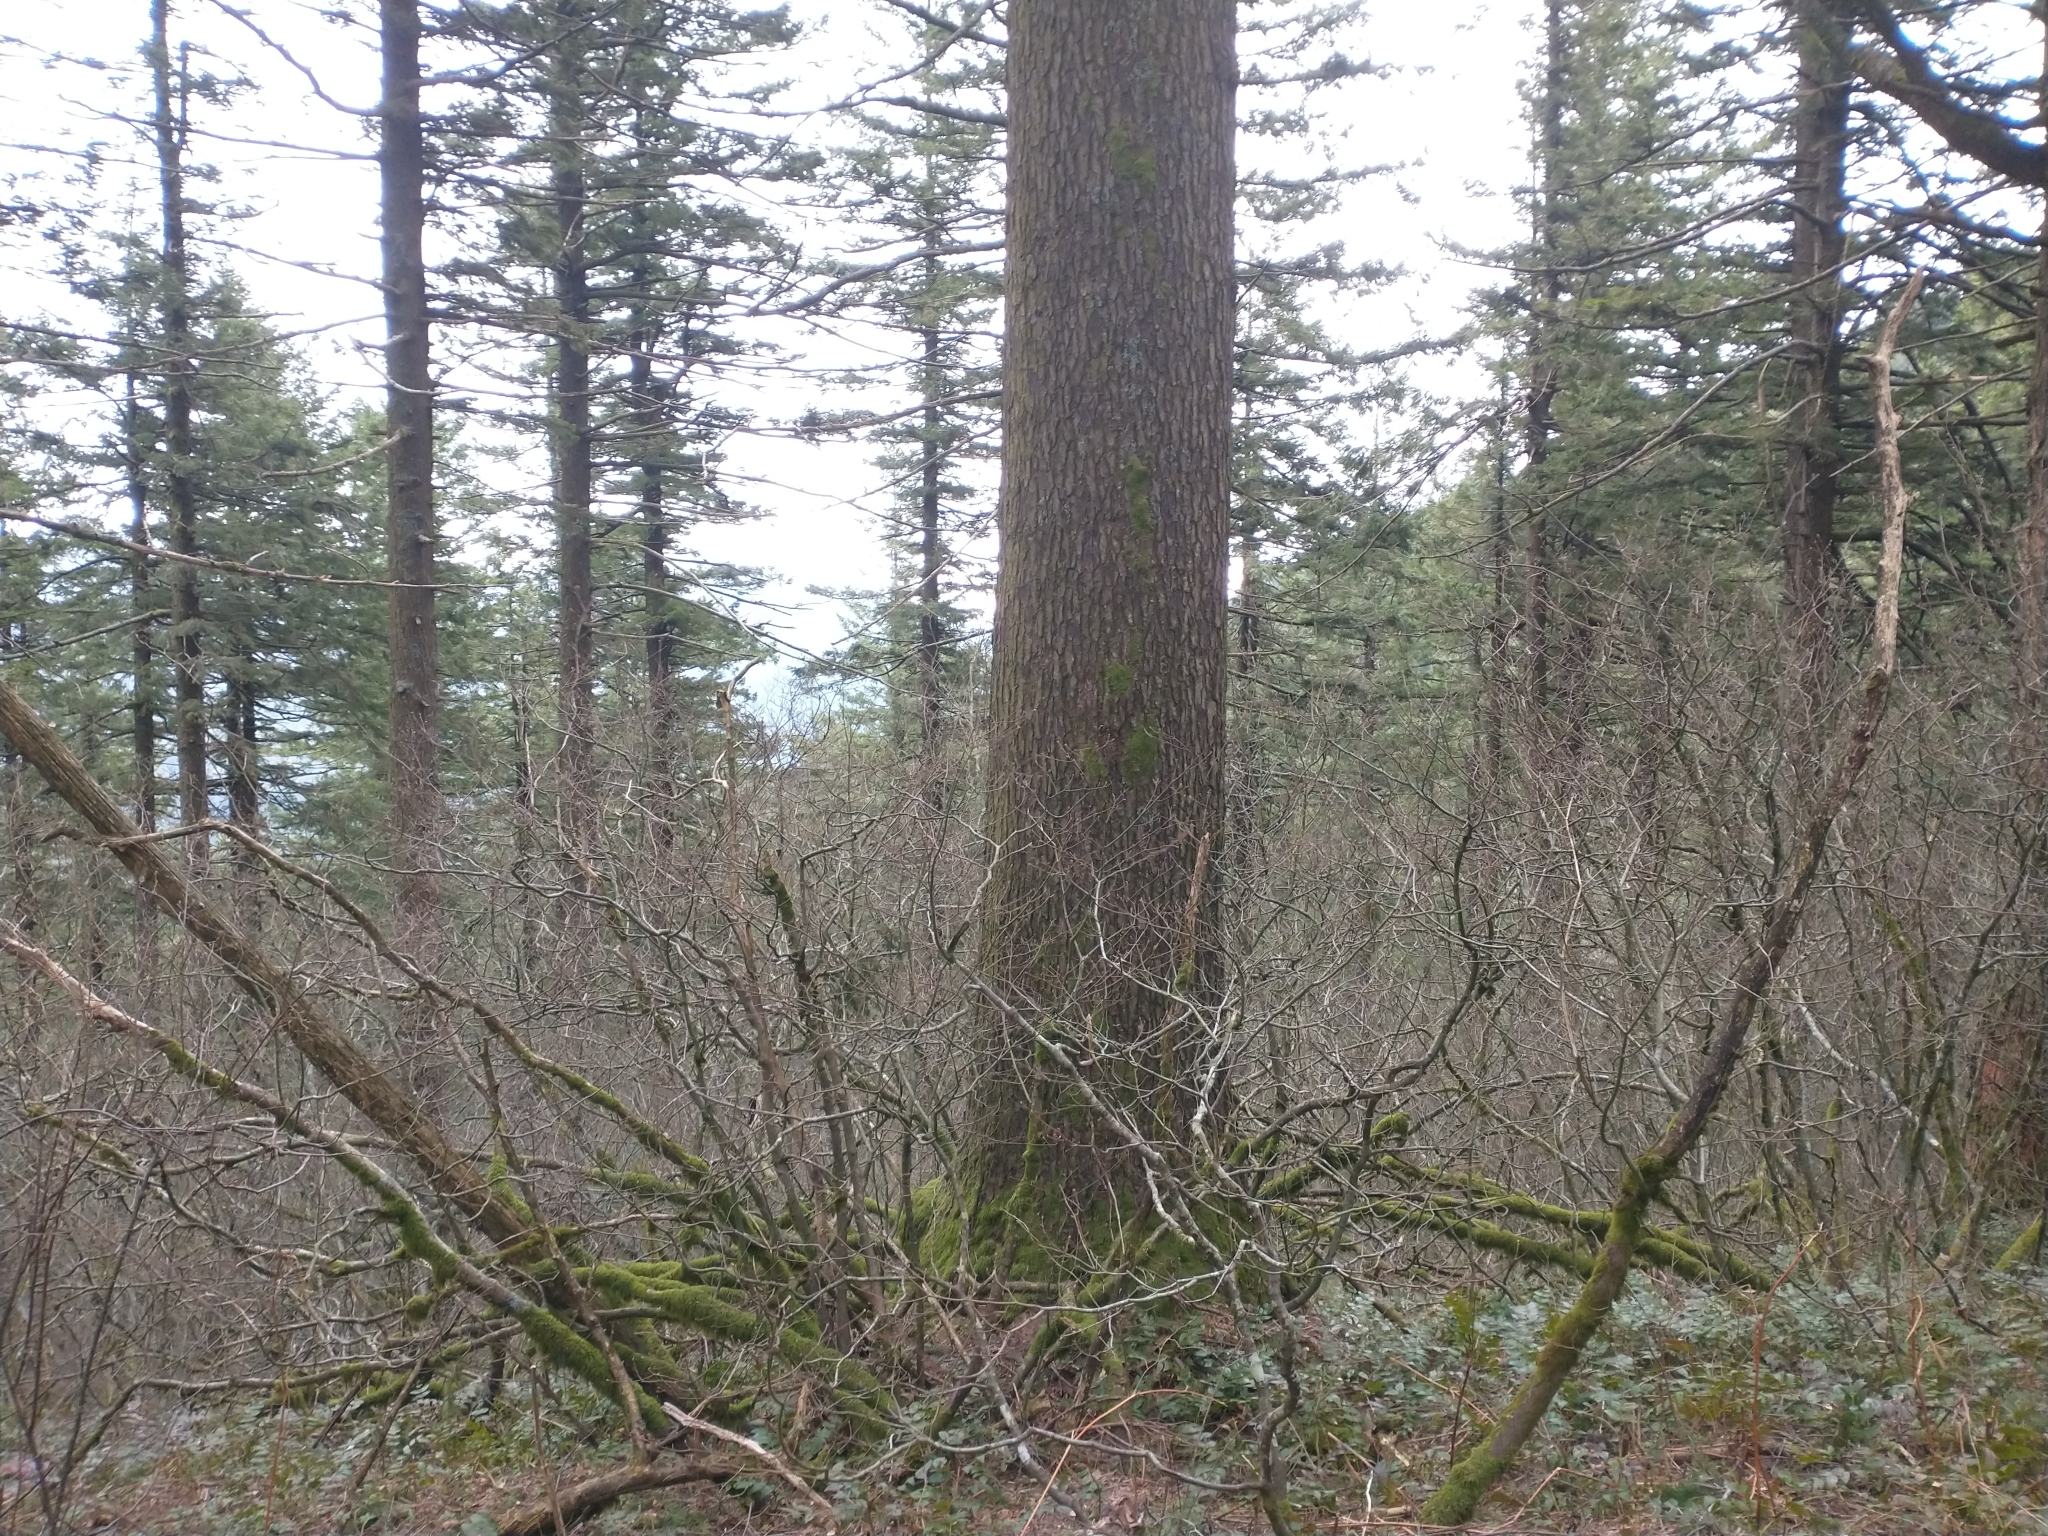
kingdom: Plantae
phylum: Tracheophyta
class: Pinopsida
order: Pinales
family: Pinaceae
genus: Abies
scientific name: Abies procera
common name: Noble fir
